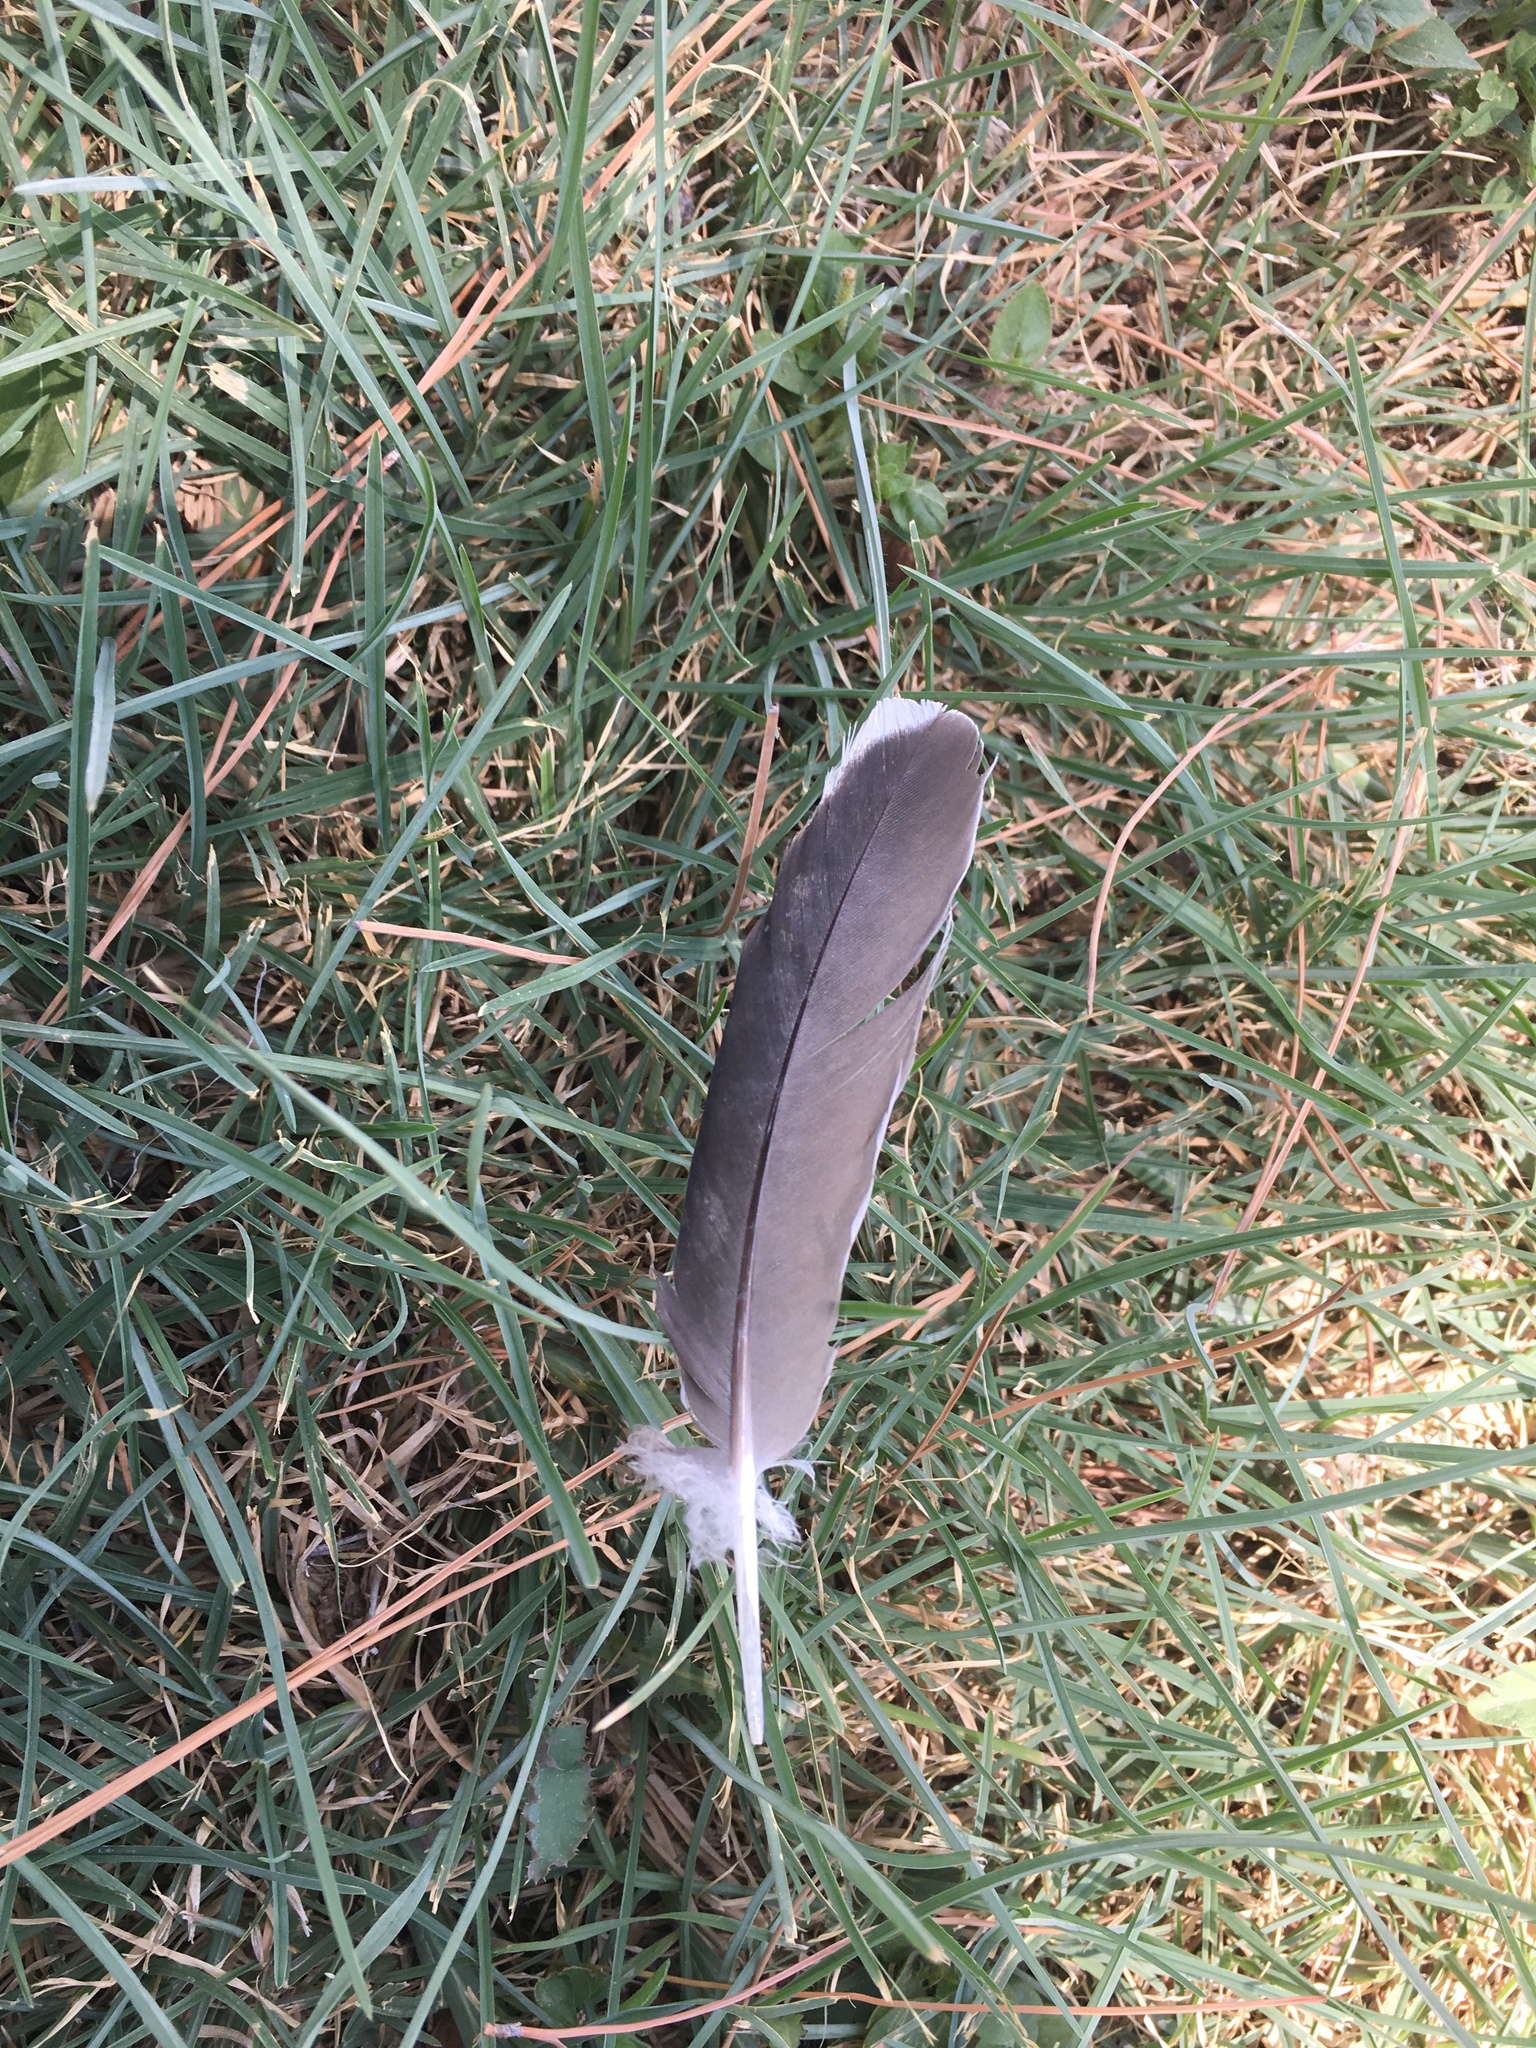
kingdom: Animalia
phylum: Chordata
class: Aves
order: Columbiformes
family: Columbidae
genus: Zenaida
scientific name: Zenaida asiatica
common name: White-winged dove
